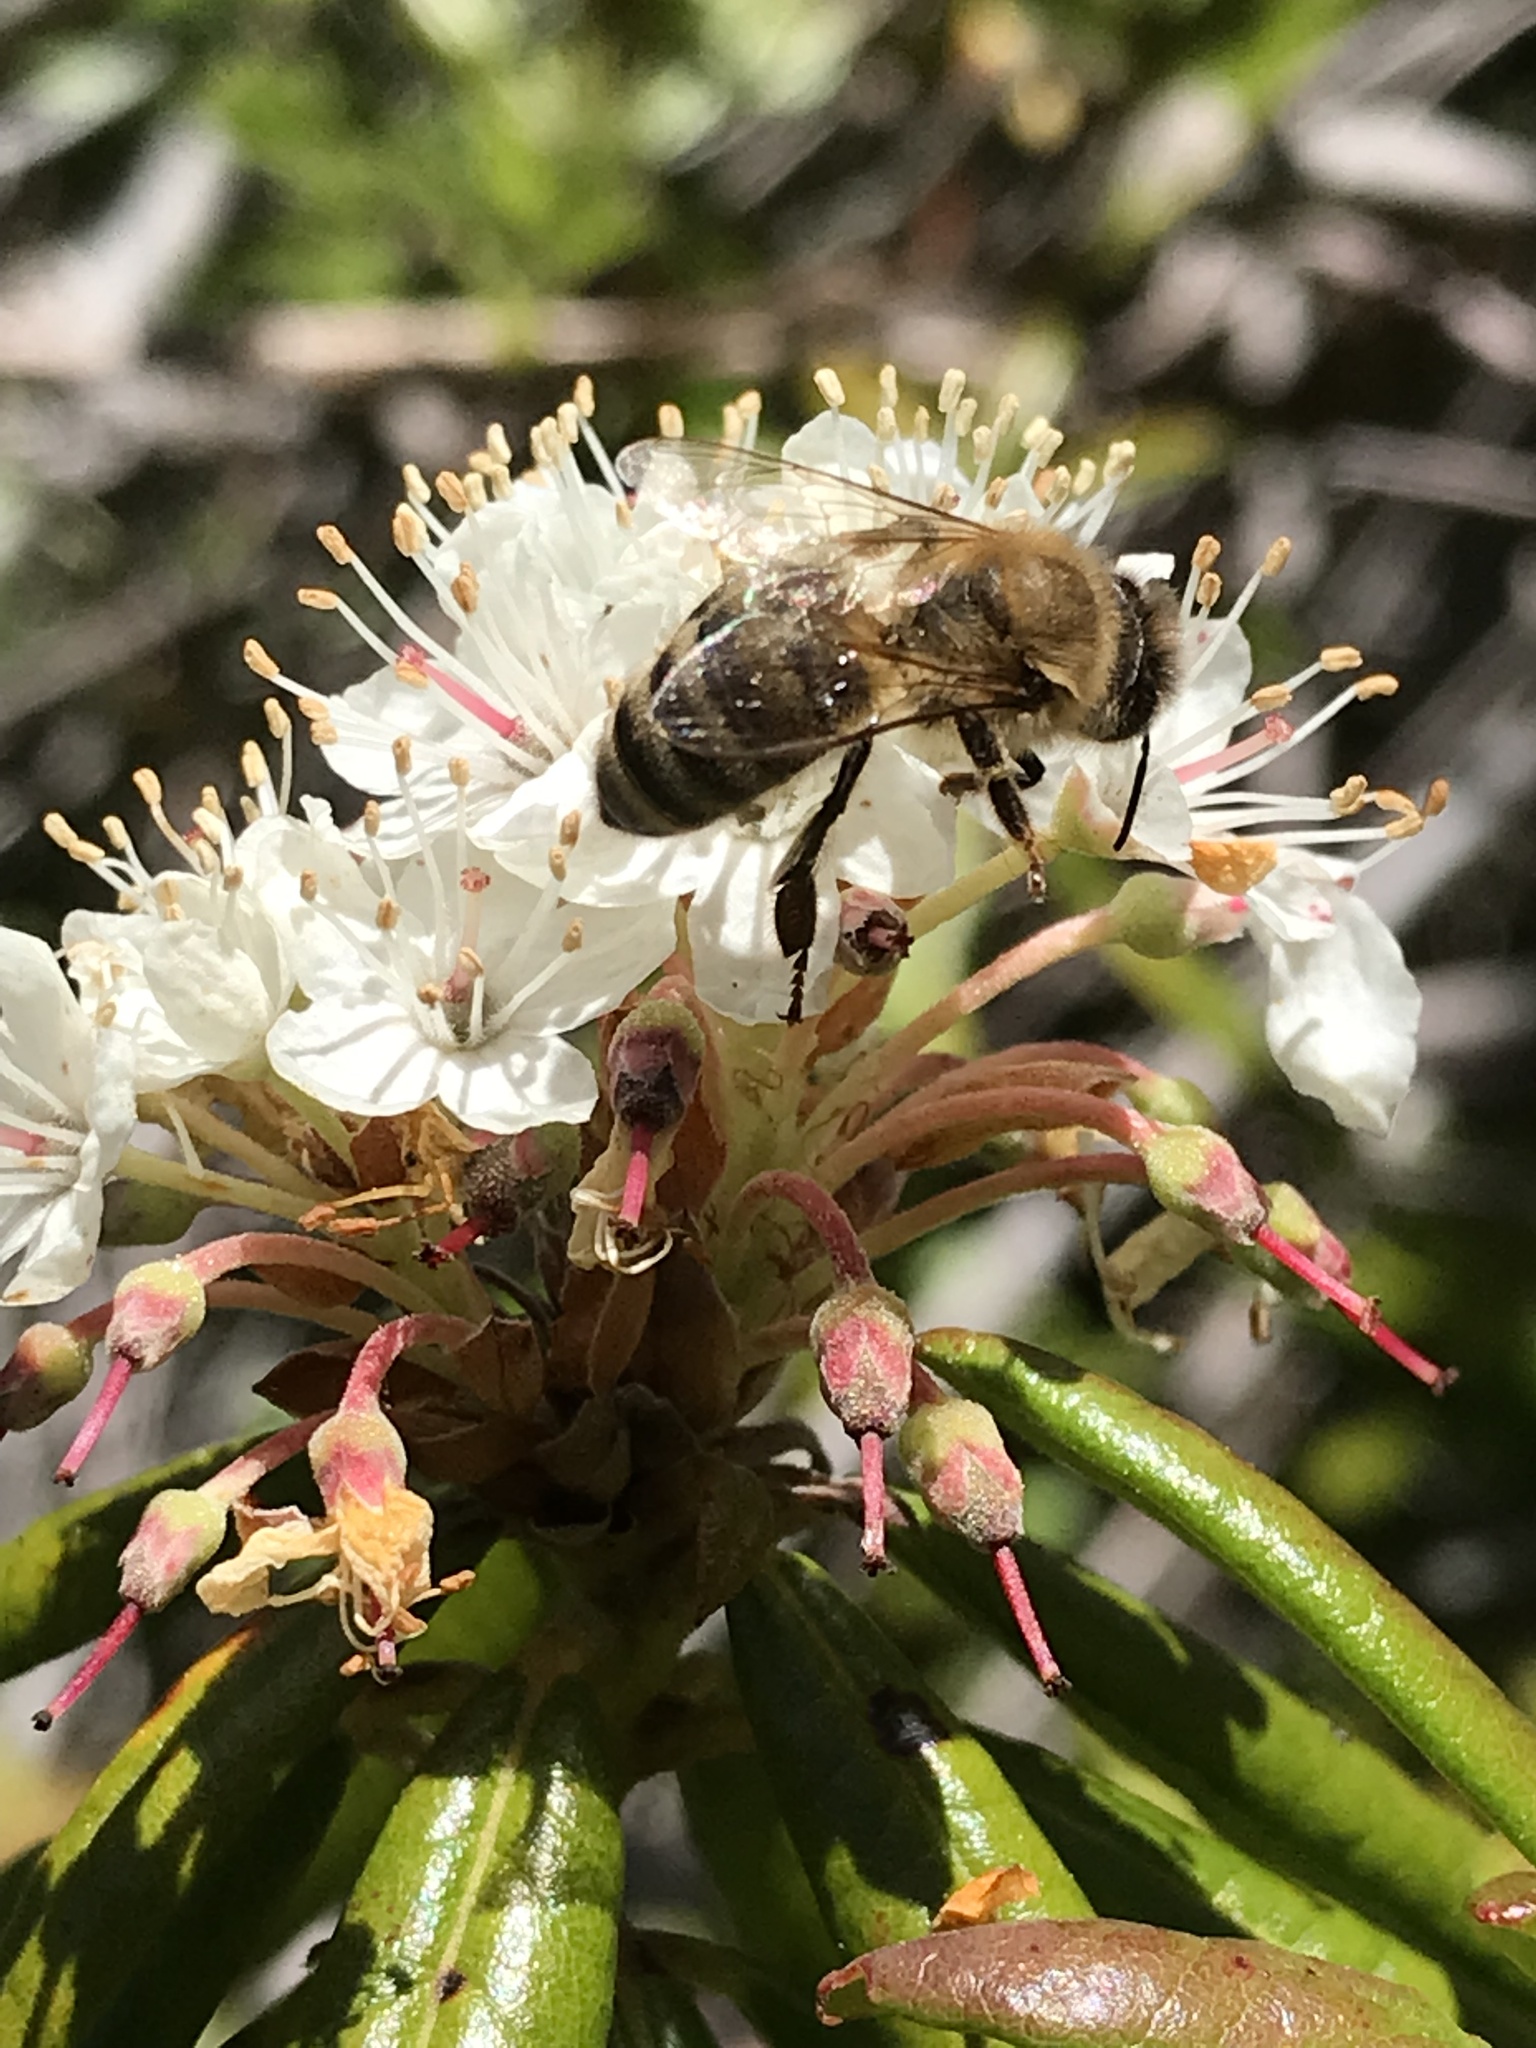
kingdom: Animalia
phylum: Arthropoda
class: Insecta
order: Hymenoptera
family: Apidae
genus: Apis
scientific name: Apis mellifera
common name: Honey bee
